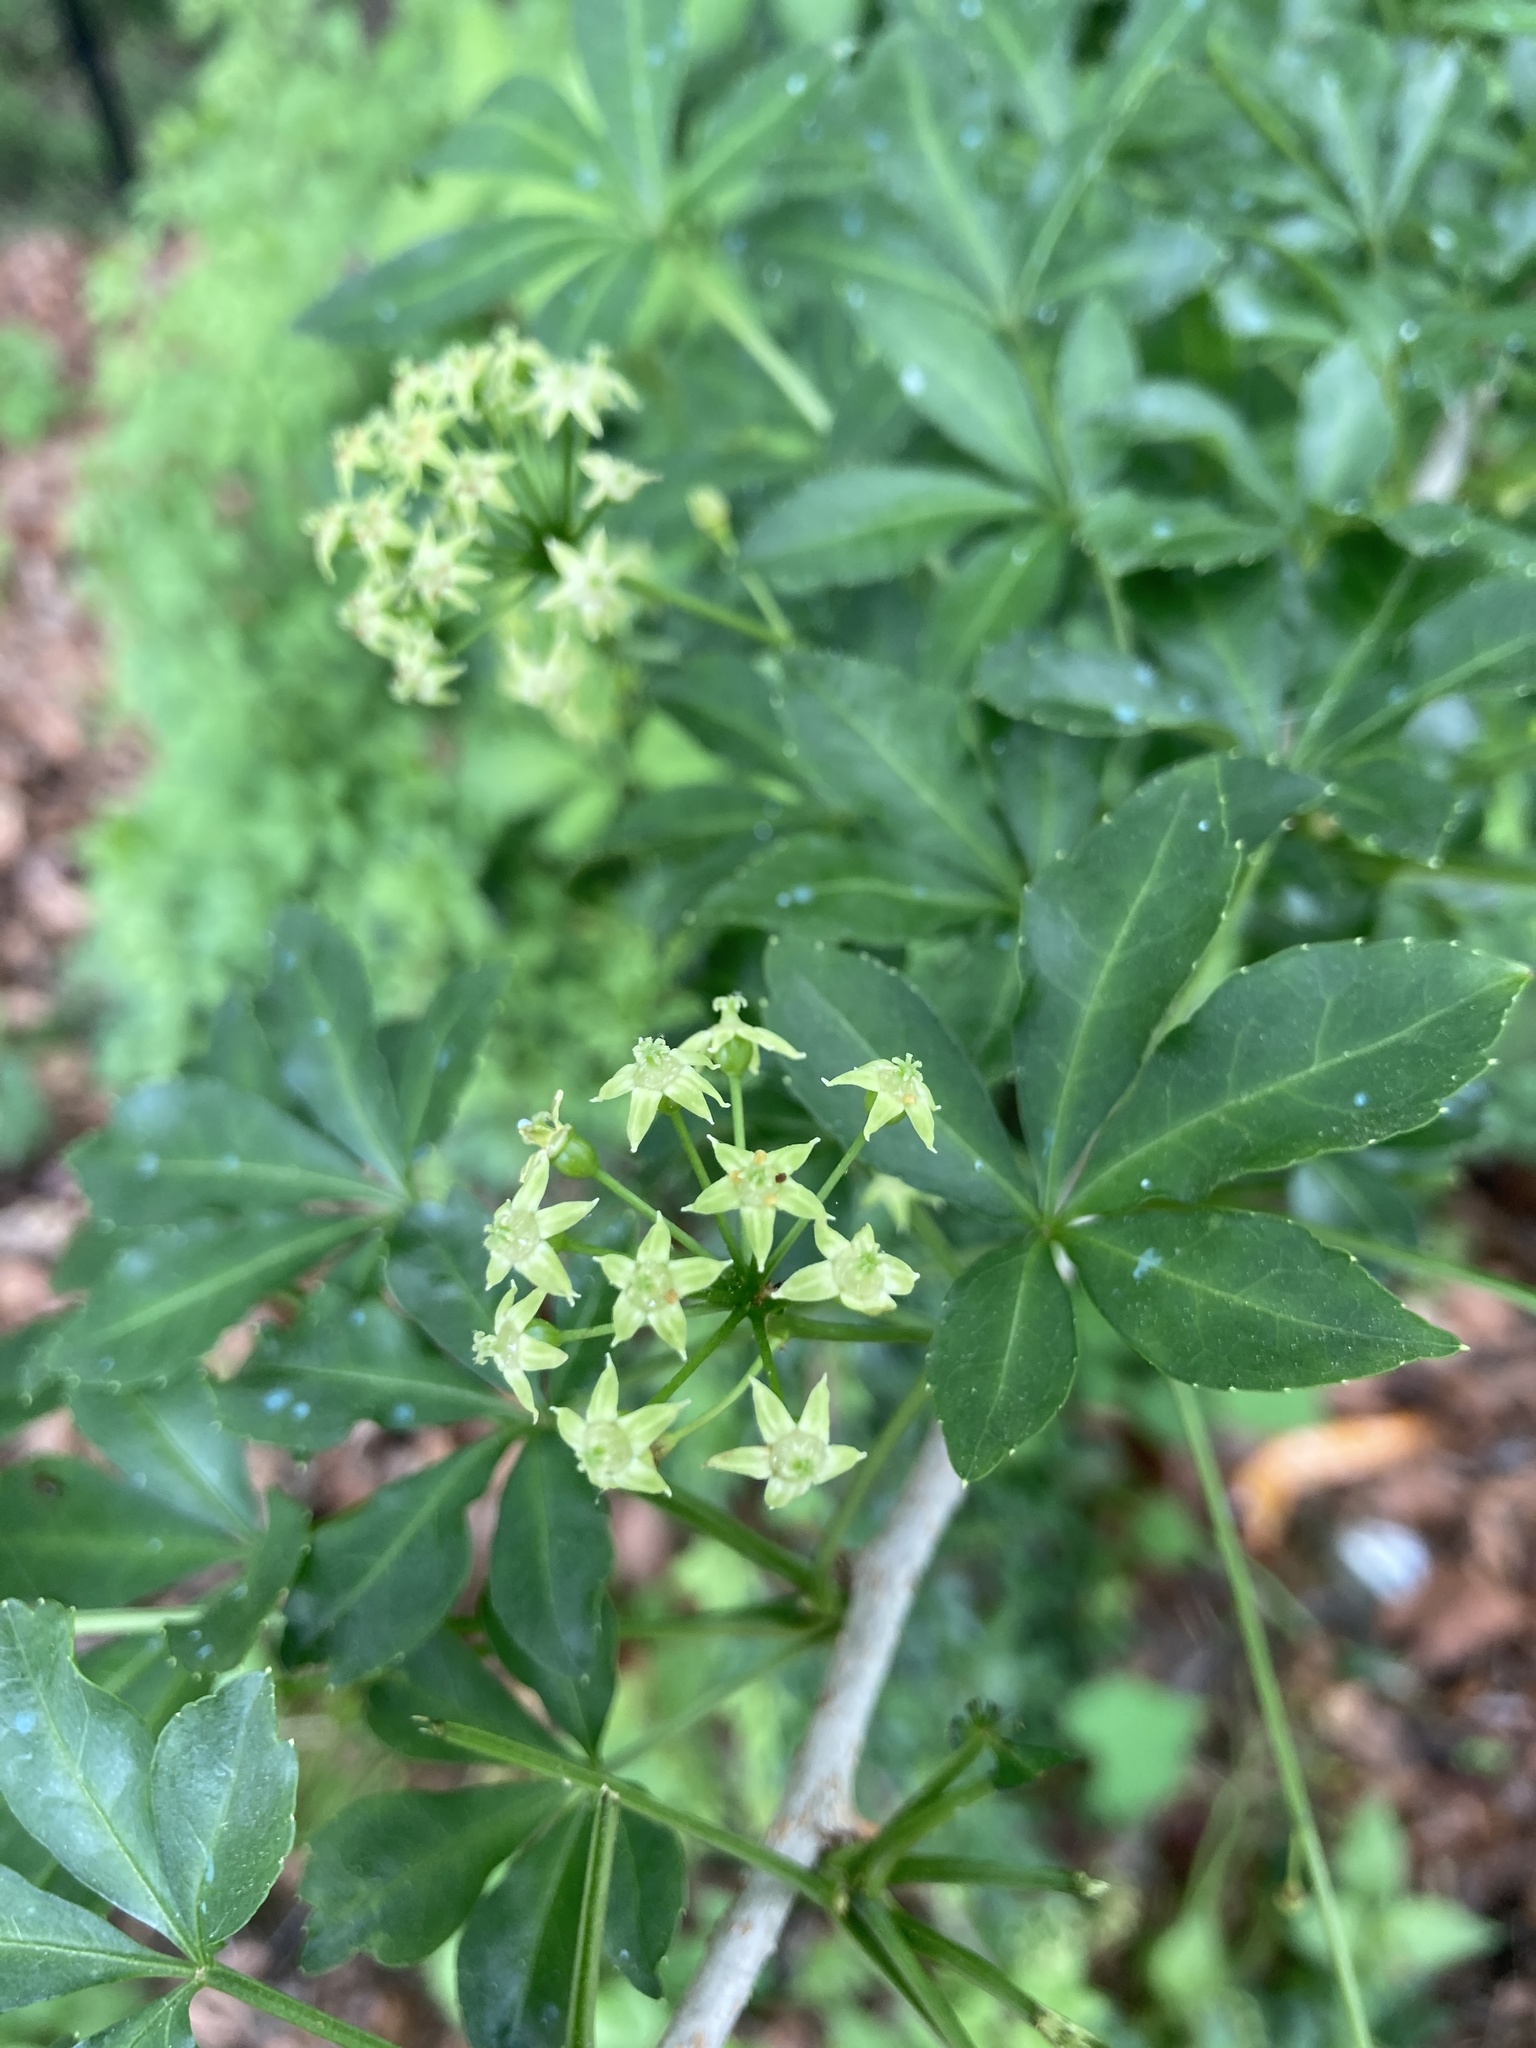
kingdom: Plantae
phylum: Tracheophyta
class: Magnoliopsida
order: Apiales
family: Araliaceae
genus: Eleutherococcus
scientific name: Eleutherococcus sieboldianus
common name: Ginseng
